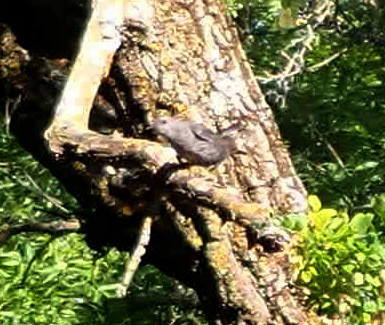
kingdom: Animalia
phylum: Chordata
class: Aves
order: Passeriformes
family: Mimidae
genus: Dumetella
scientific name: Dumetella carolinensis
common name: Gray catbird
